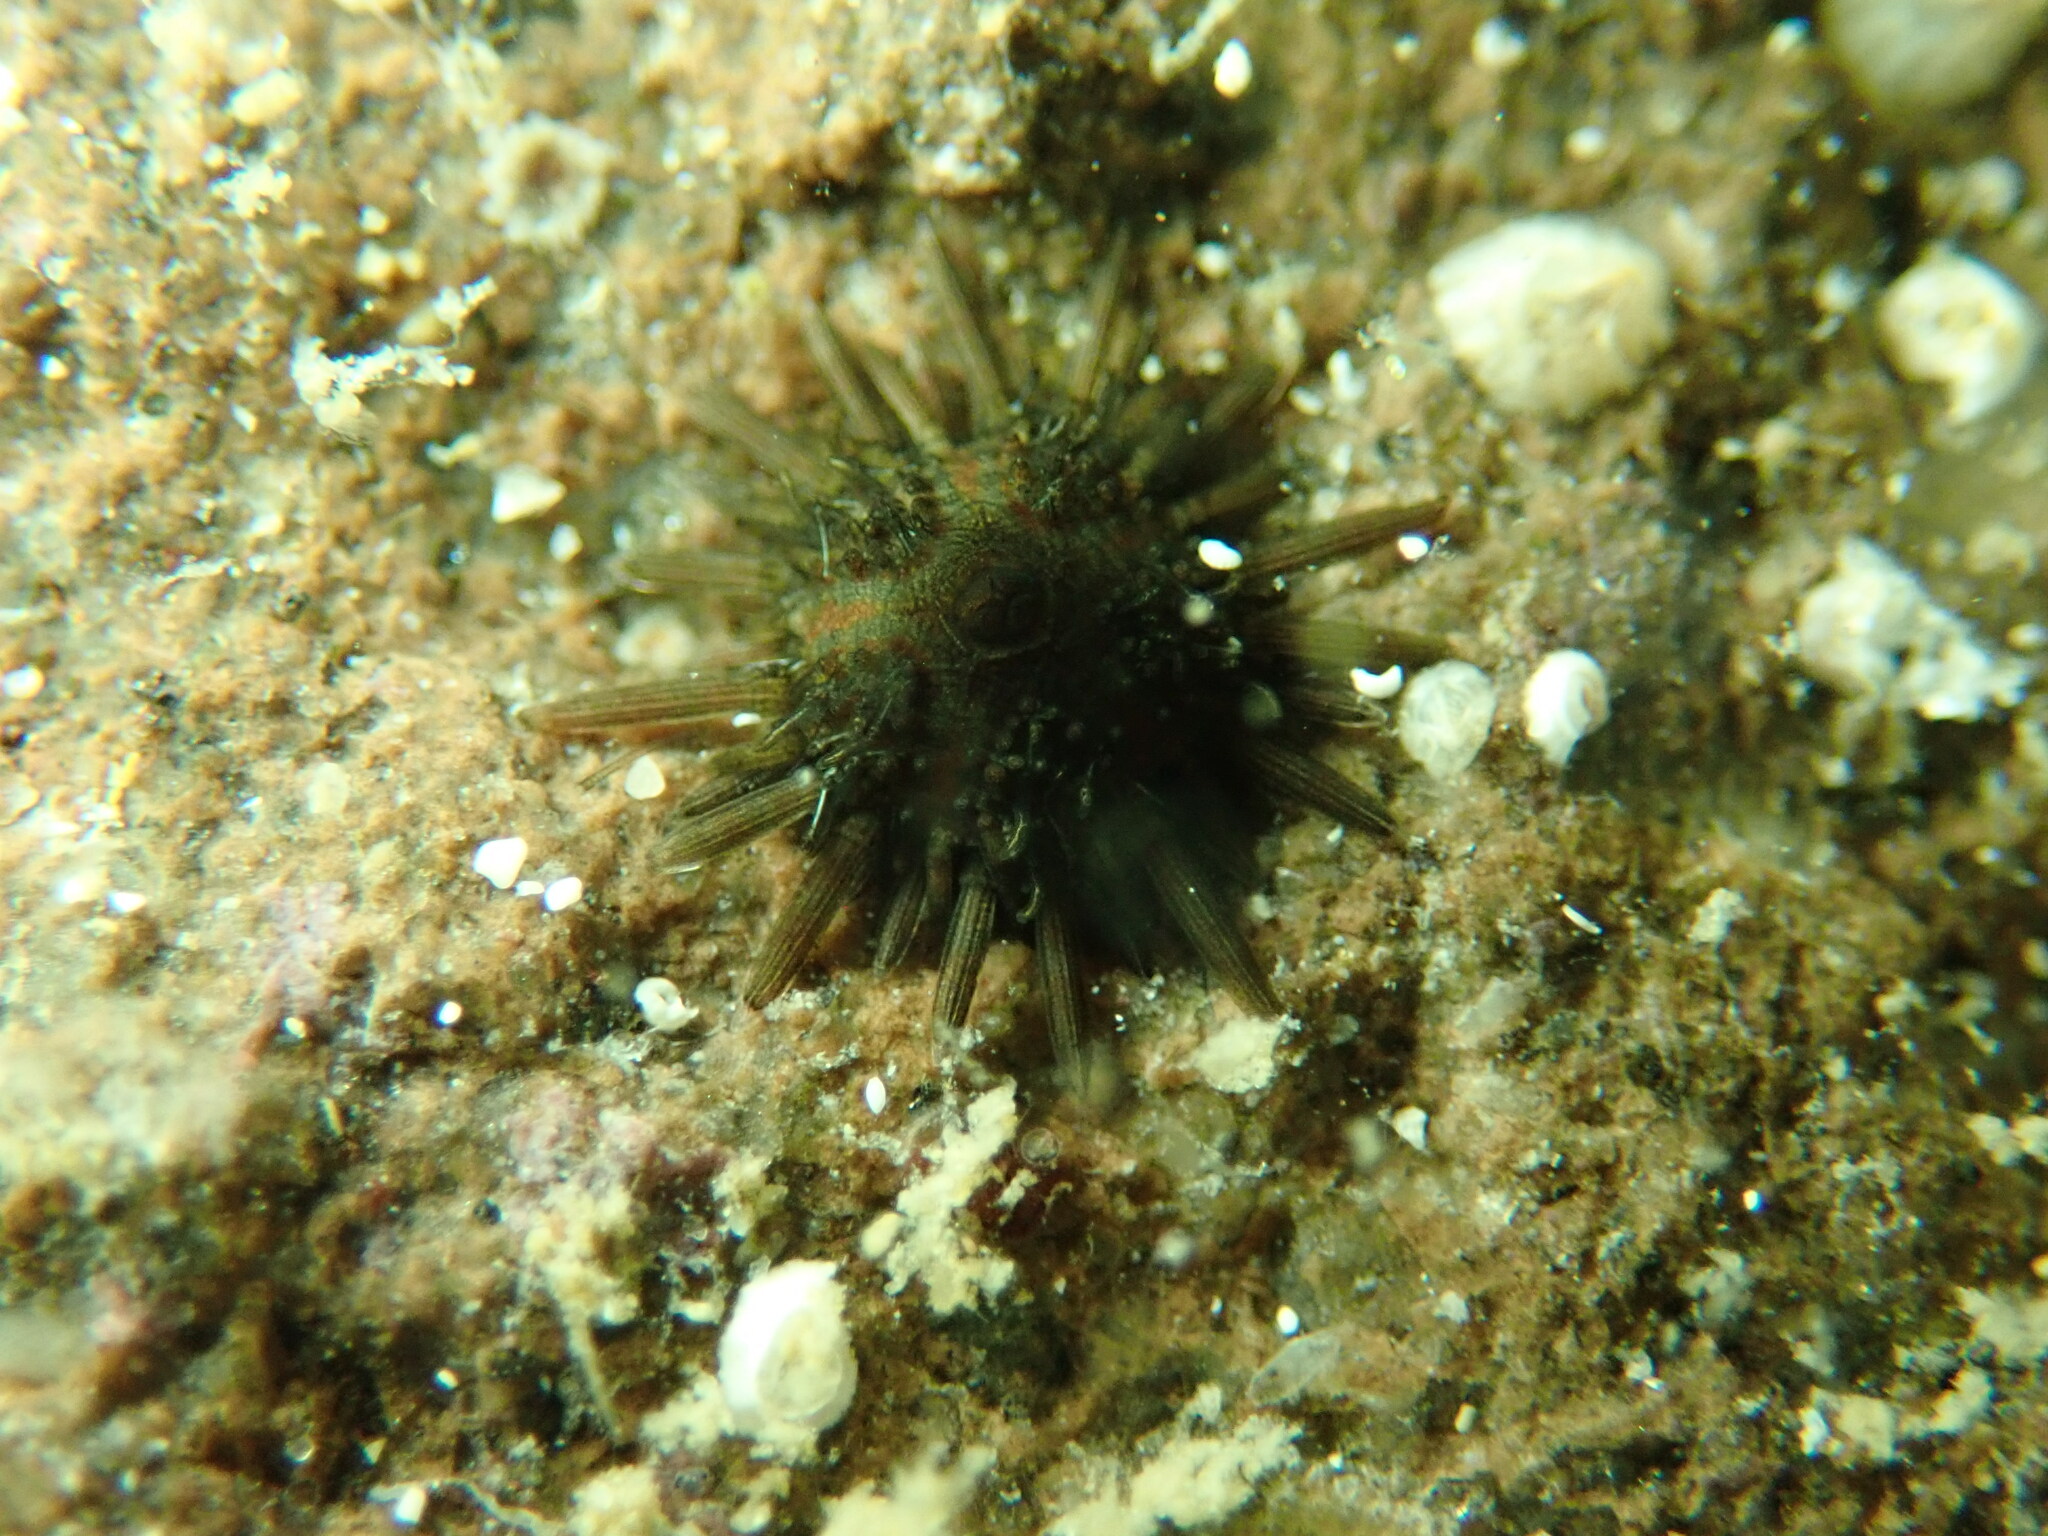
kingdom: Animalia
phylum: Echinodermata
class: Echinoidea
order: Arbacioida
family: Arbaciidae
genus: Arbacia
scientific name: Arbacia stellata
